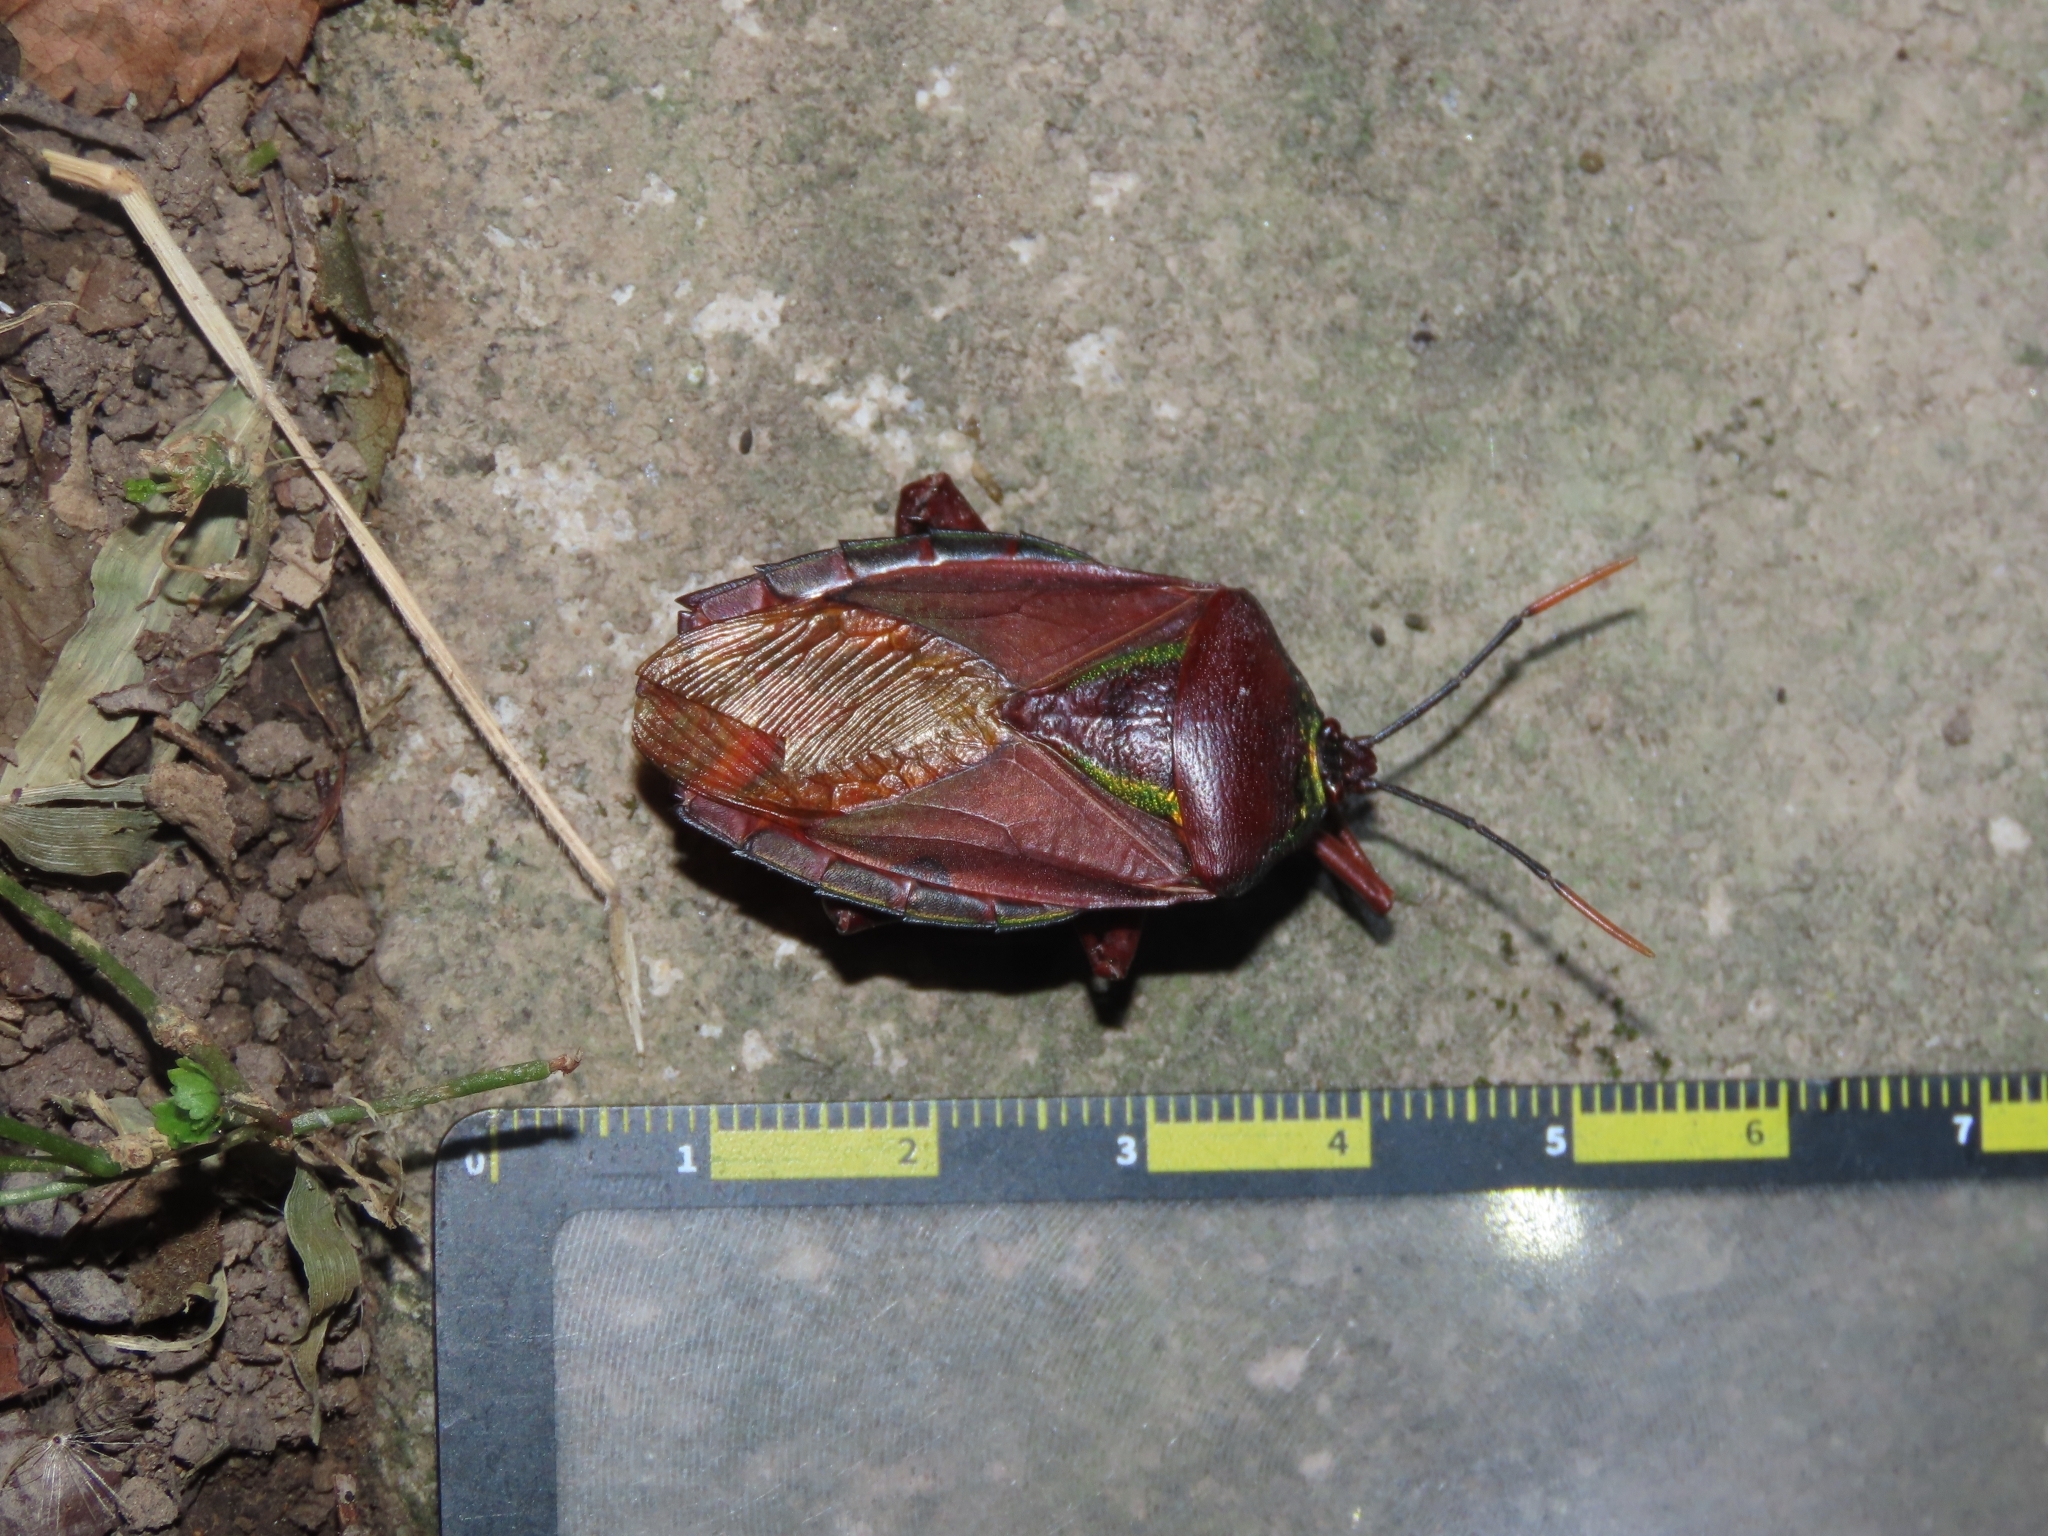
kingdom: Animalia
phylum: Arthropoda
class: Insecta
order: Hemiptera
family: Tessaratomidae
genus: Eurostus
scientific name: Eurostus validus
